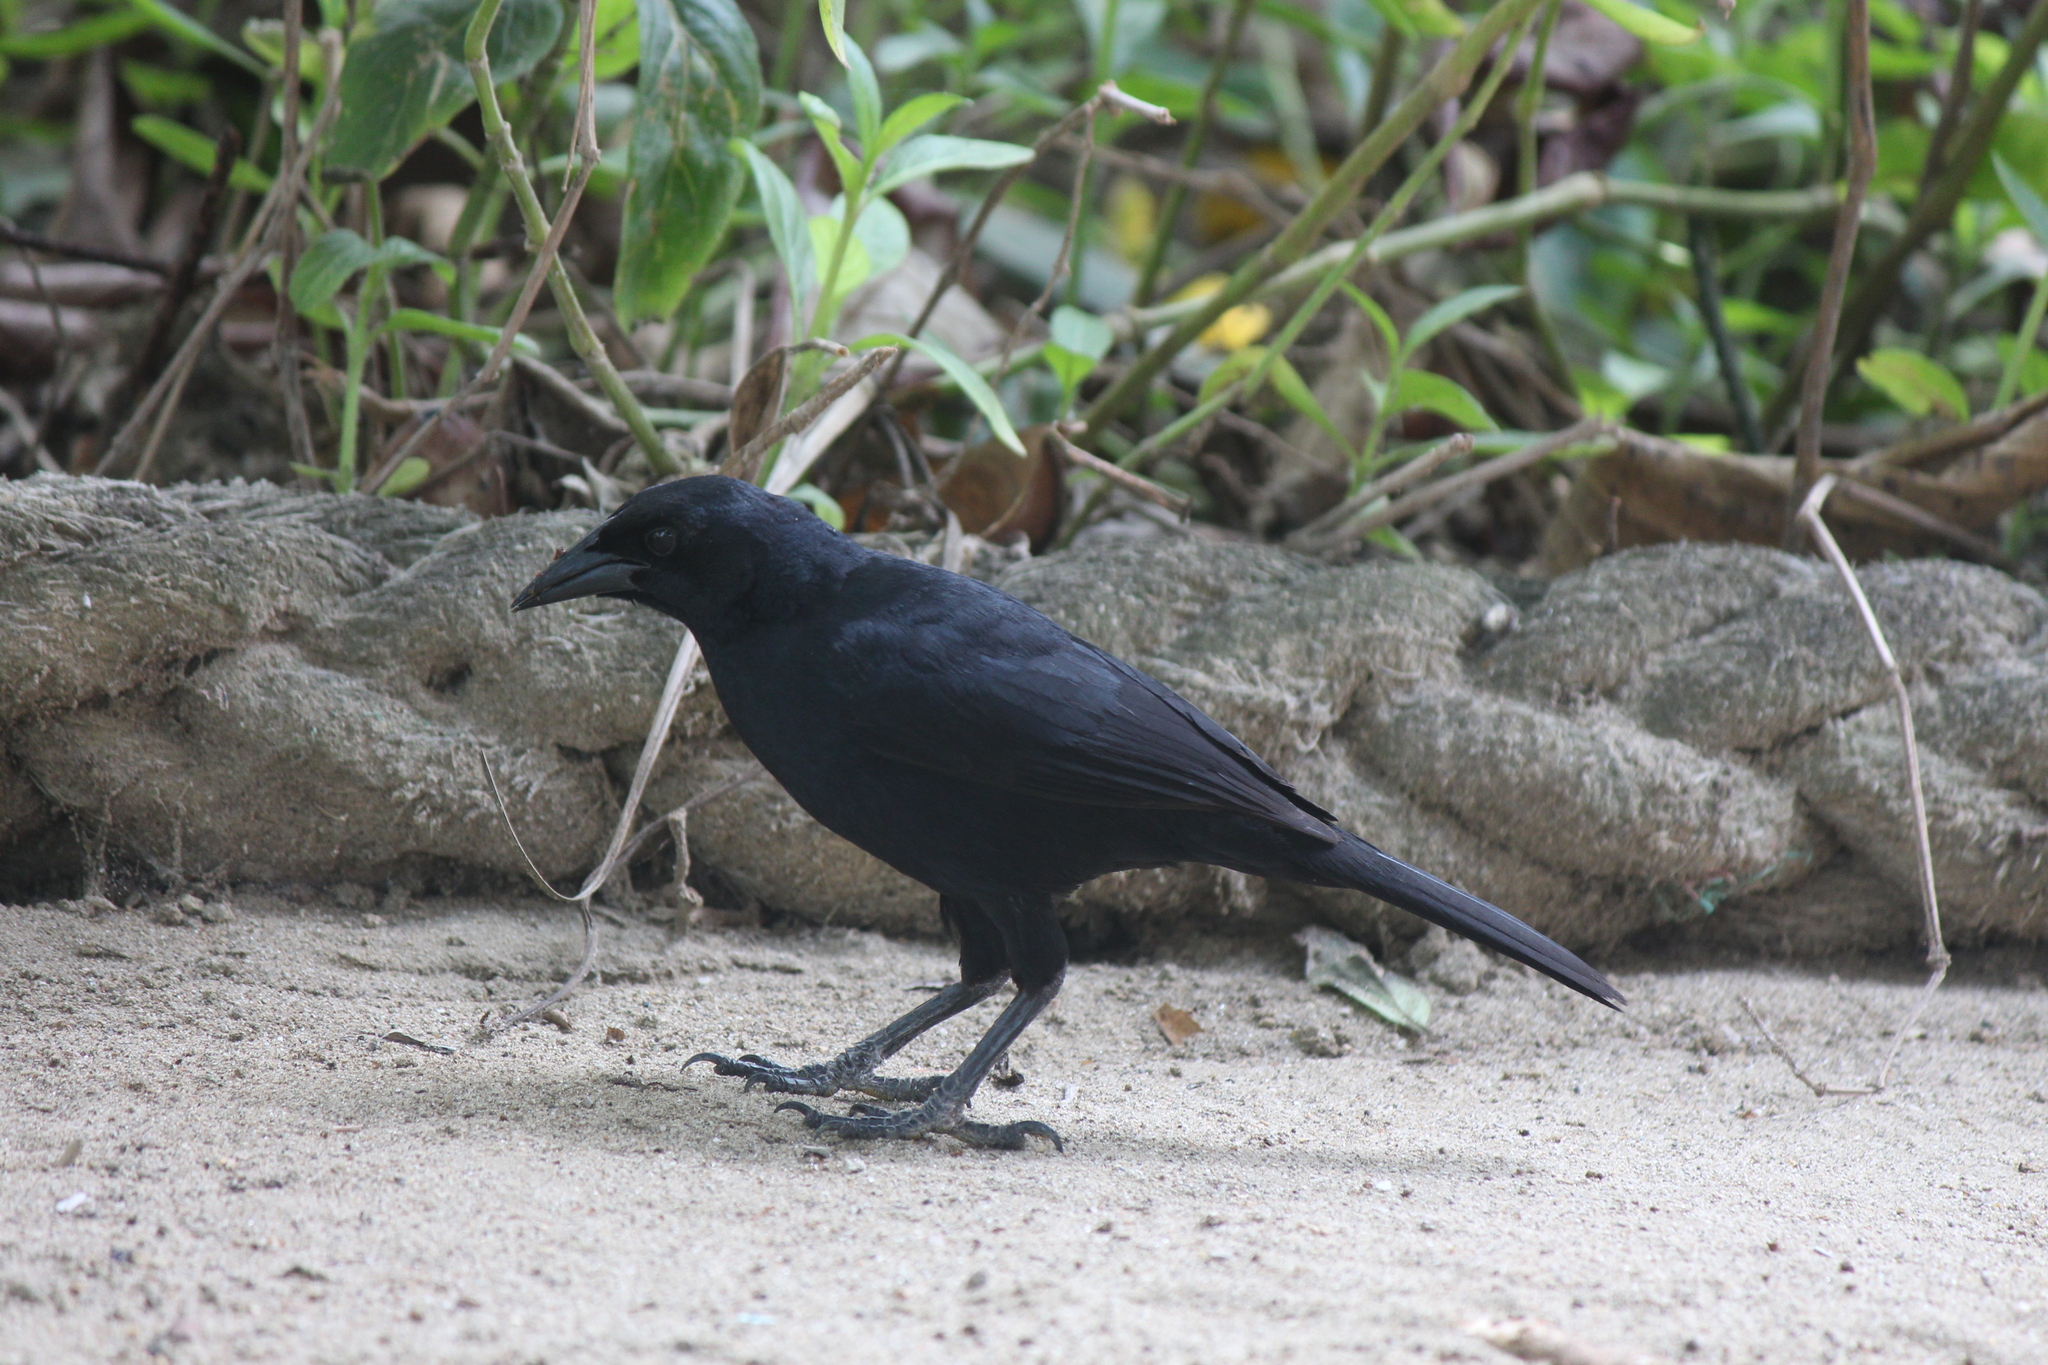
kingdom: Animalia
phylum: Chordata
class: Aves
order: Passeriformes
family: Icteridae
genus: Dives
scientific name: Dives warczewiczi
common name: Scrub blackbird
